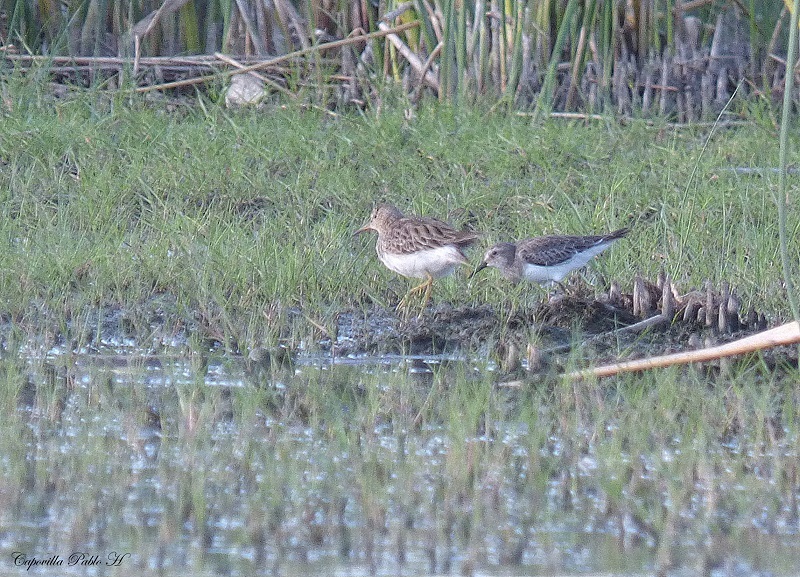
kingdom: Animalia
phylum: Chordata
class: Aves
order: Charadriiformes
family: Scolopacidae
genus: Calidris
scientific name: Calidris bairdii
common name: Baird's sandpiper
